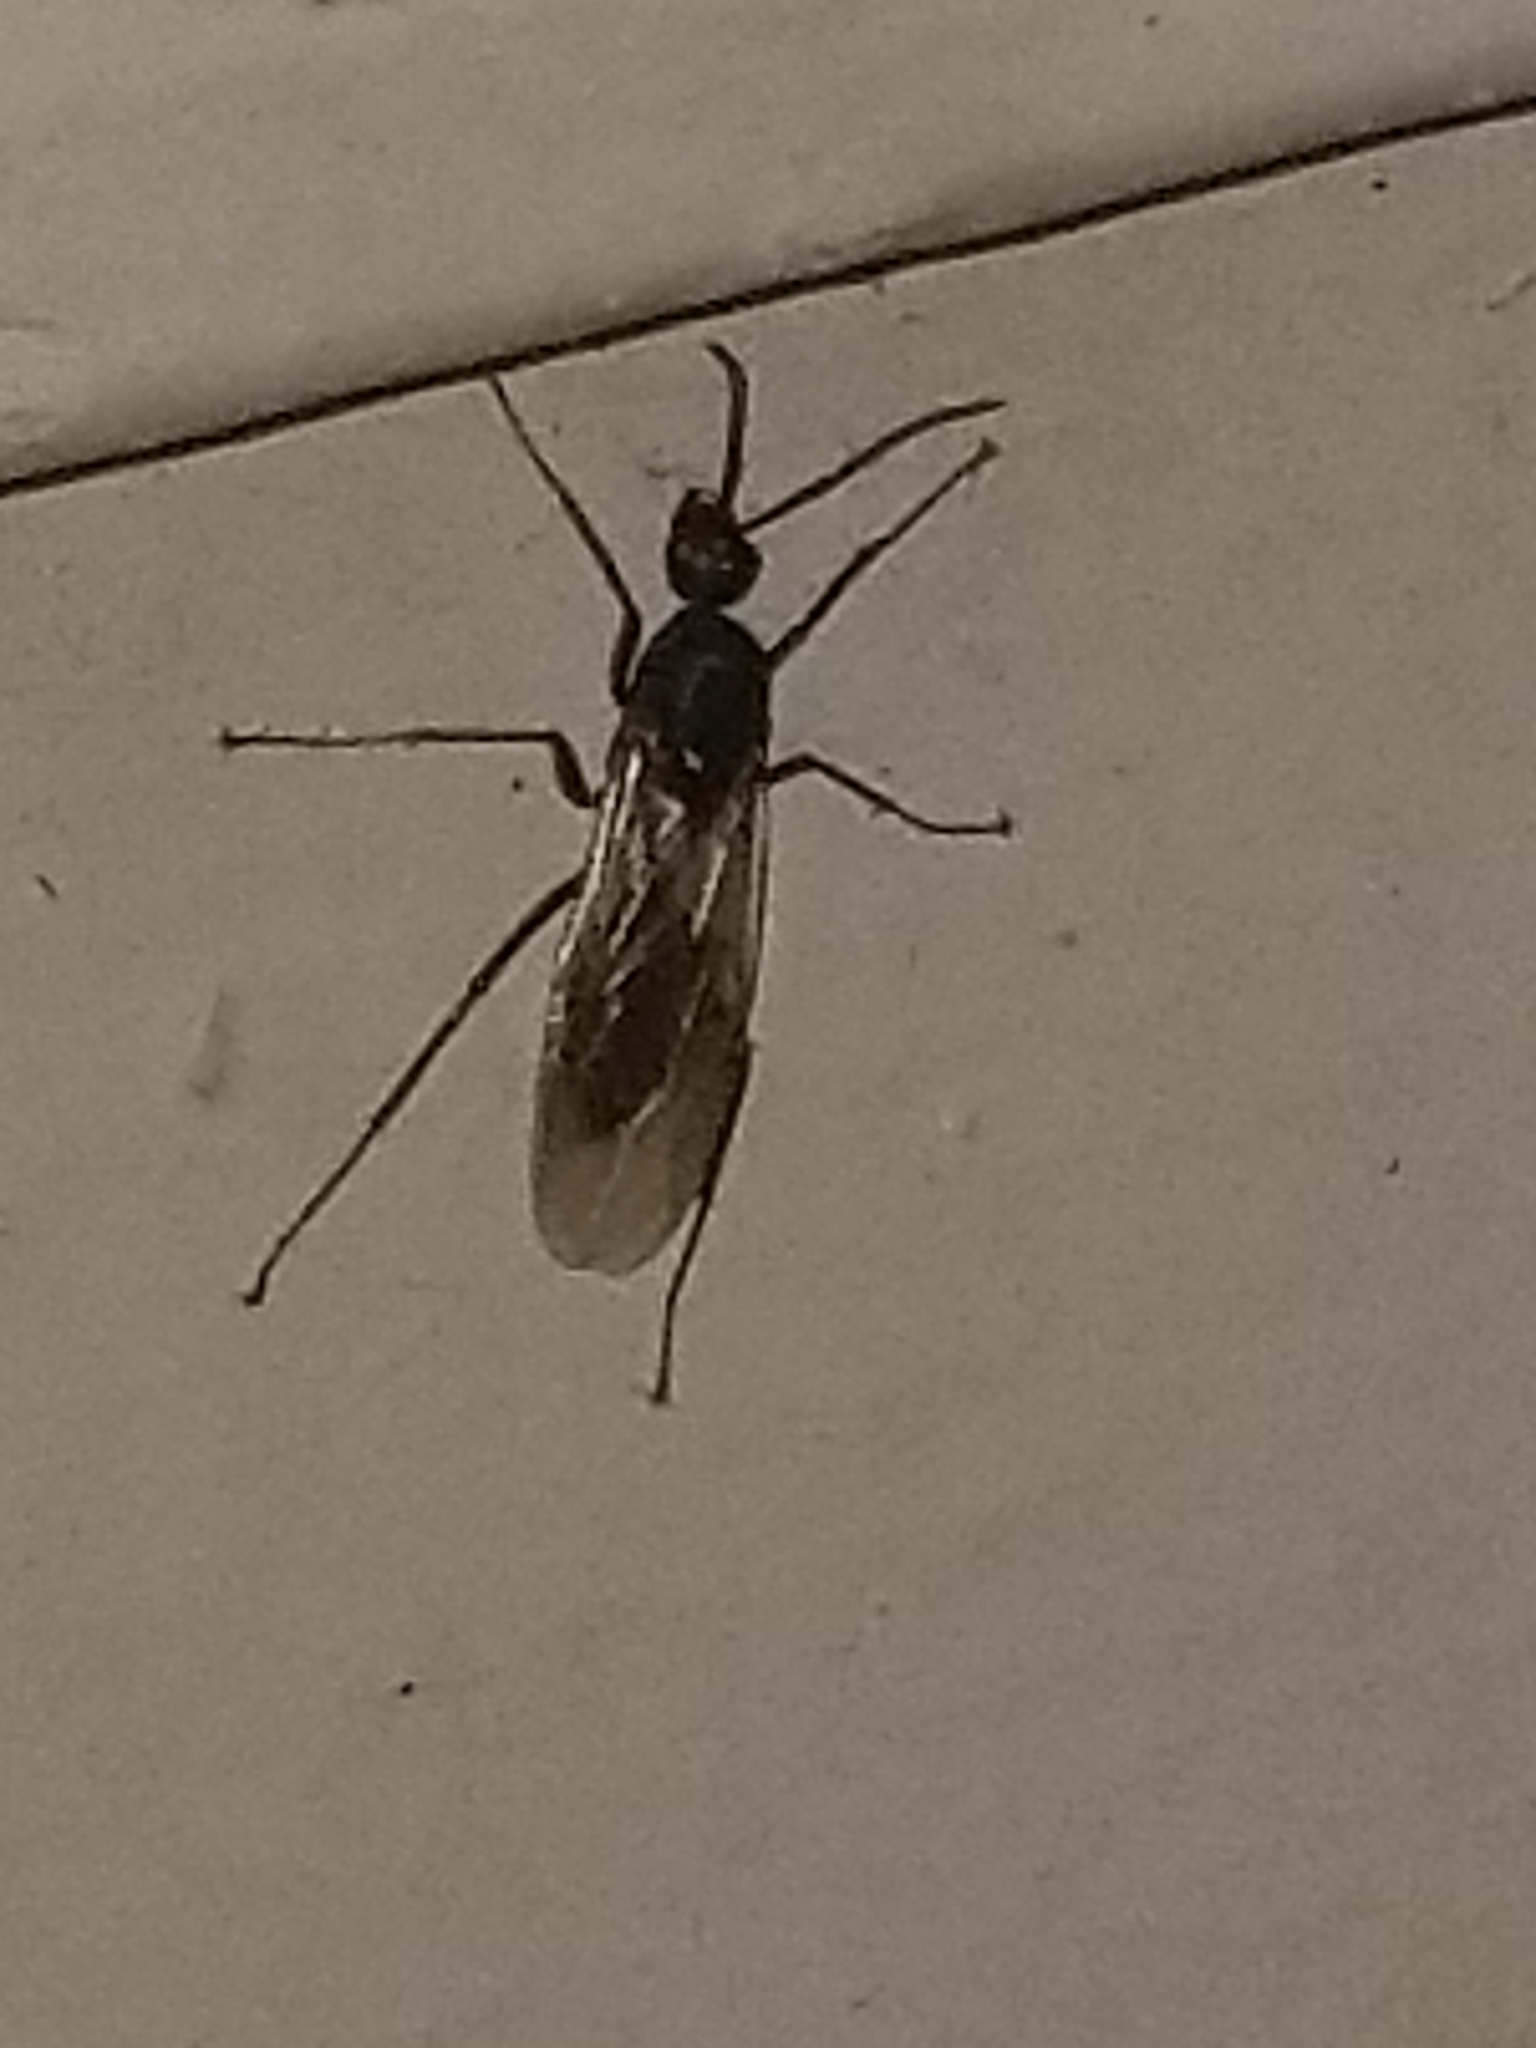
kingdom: Animalia
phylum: Arthropoda
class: Insecta
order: Hymenoptera
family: Formicidae
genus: Camponotus
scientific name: Camponotus pennsylvanicus
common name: Black carpenter ant
